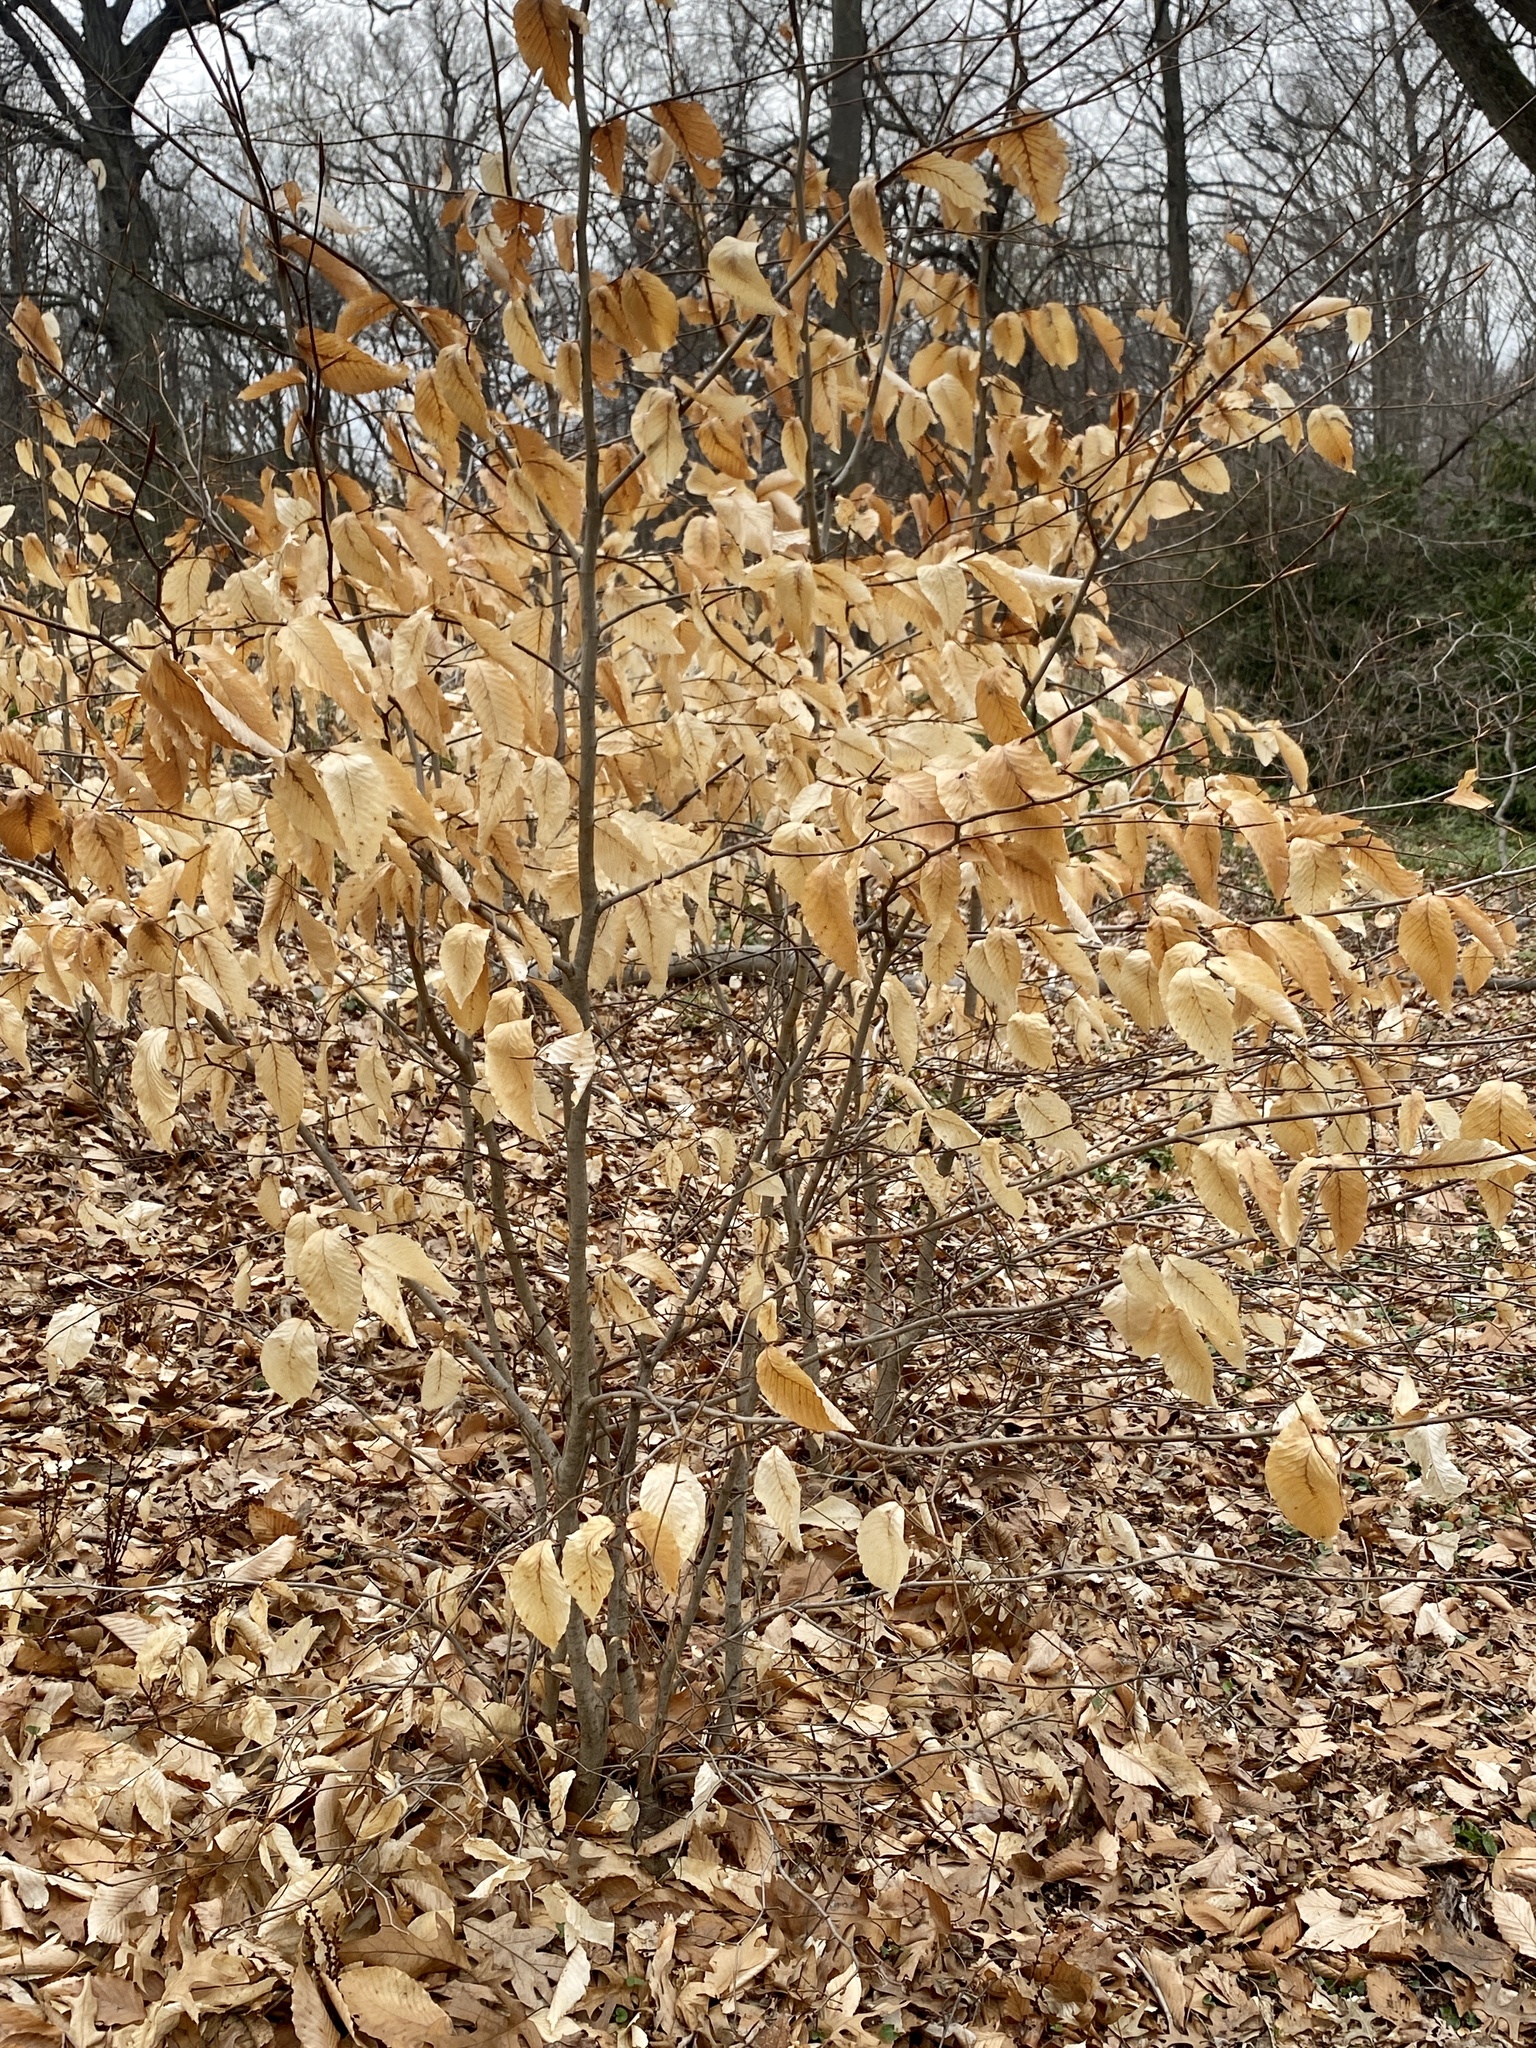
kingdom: Plantae
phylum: Tracheophyta
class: Magnoliopsida
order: Fagales
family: Fagaceae
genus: Fagus
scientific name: Fagus grandifolia
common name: American beech
